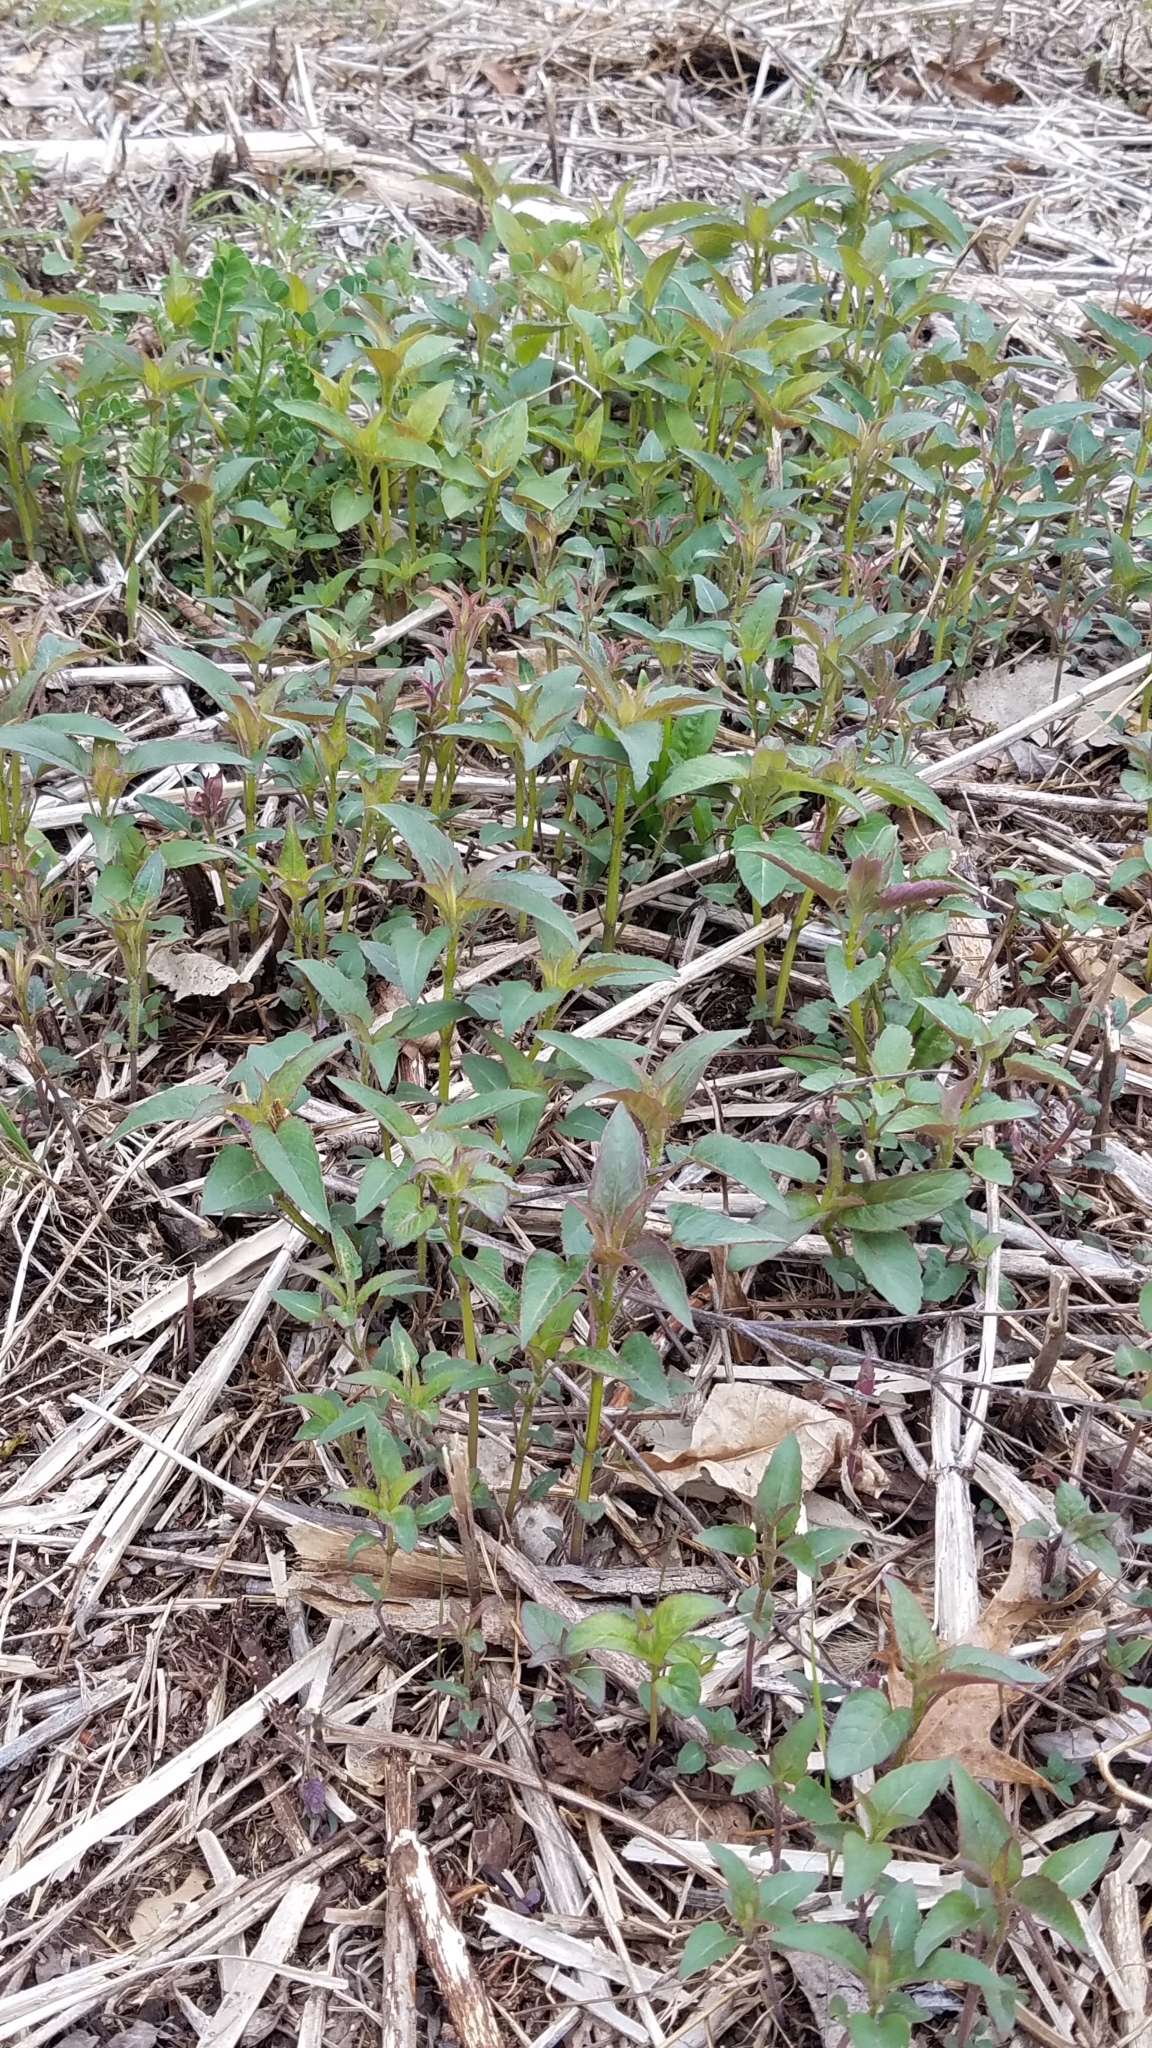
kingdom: Plantae
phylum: Tracheophyta
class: Magnoliopsida
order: Lamiales
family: Lamiaceae
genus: Monarda
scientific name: Monarda fistulosa
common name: Purple beebalm
